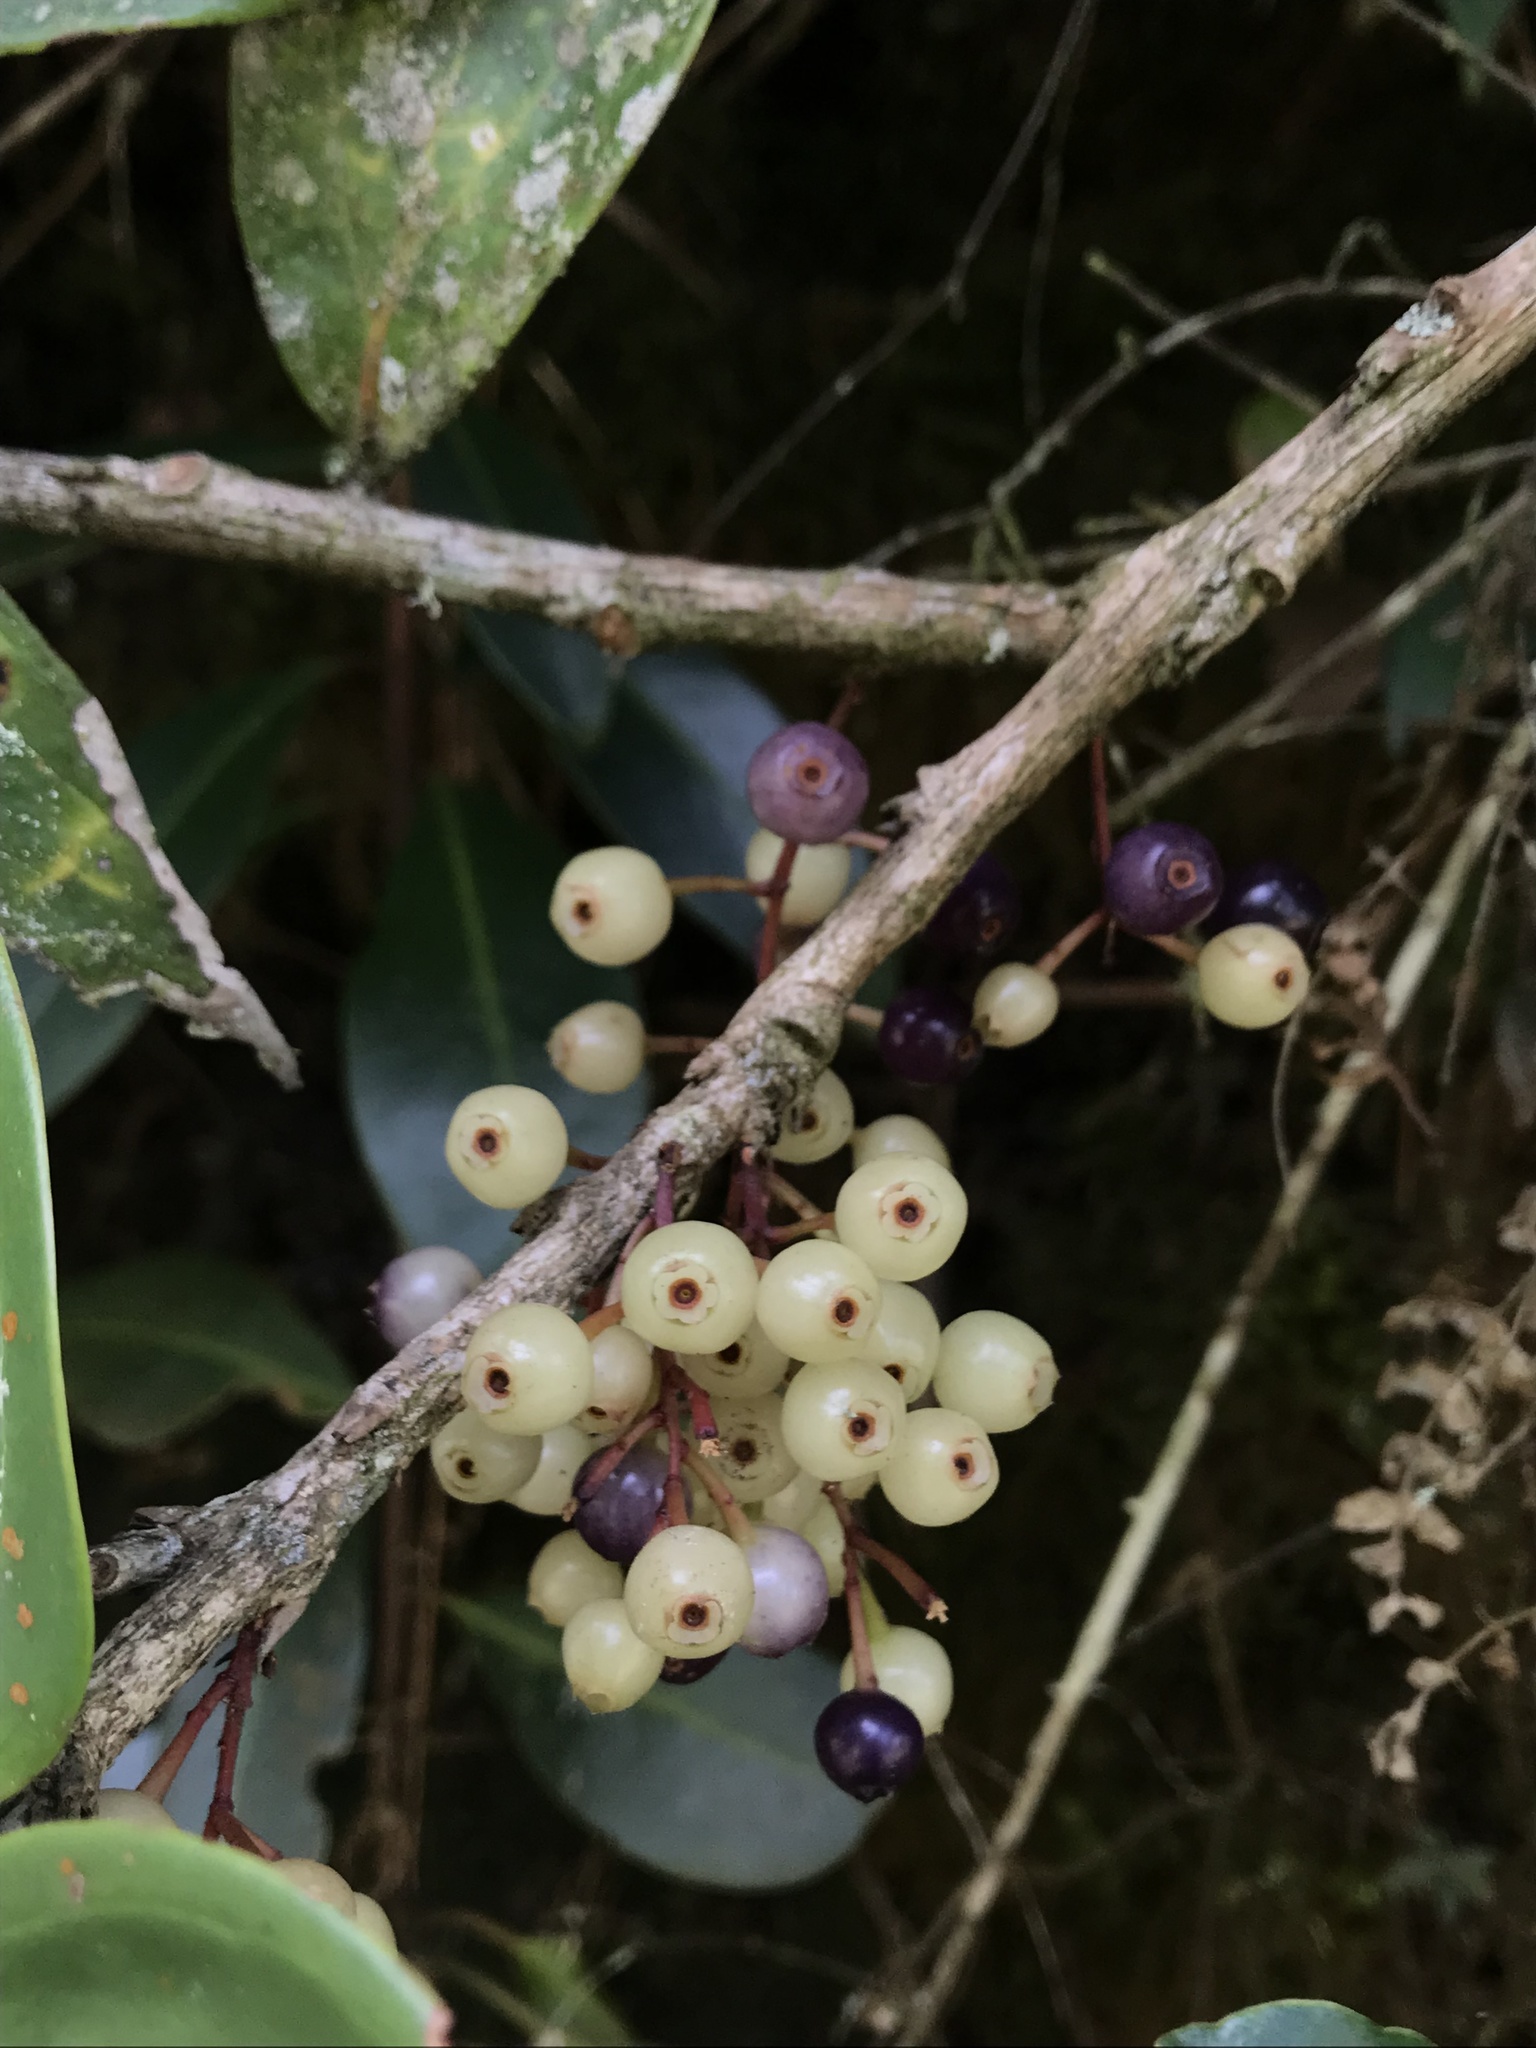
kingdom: Plantae
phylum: Tracheophyta
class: Magnoliopsida
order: Ericales
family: Ericaceae
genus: Thibaudia
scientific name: Thibaudia floribunda
